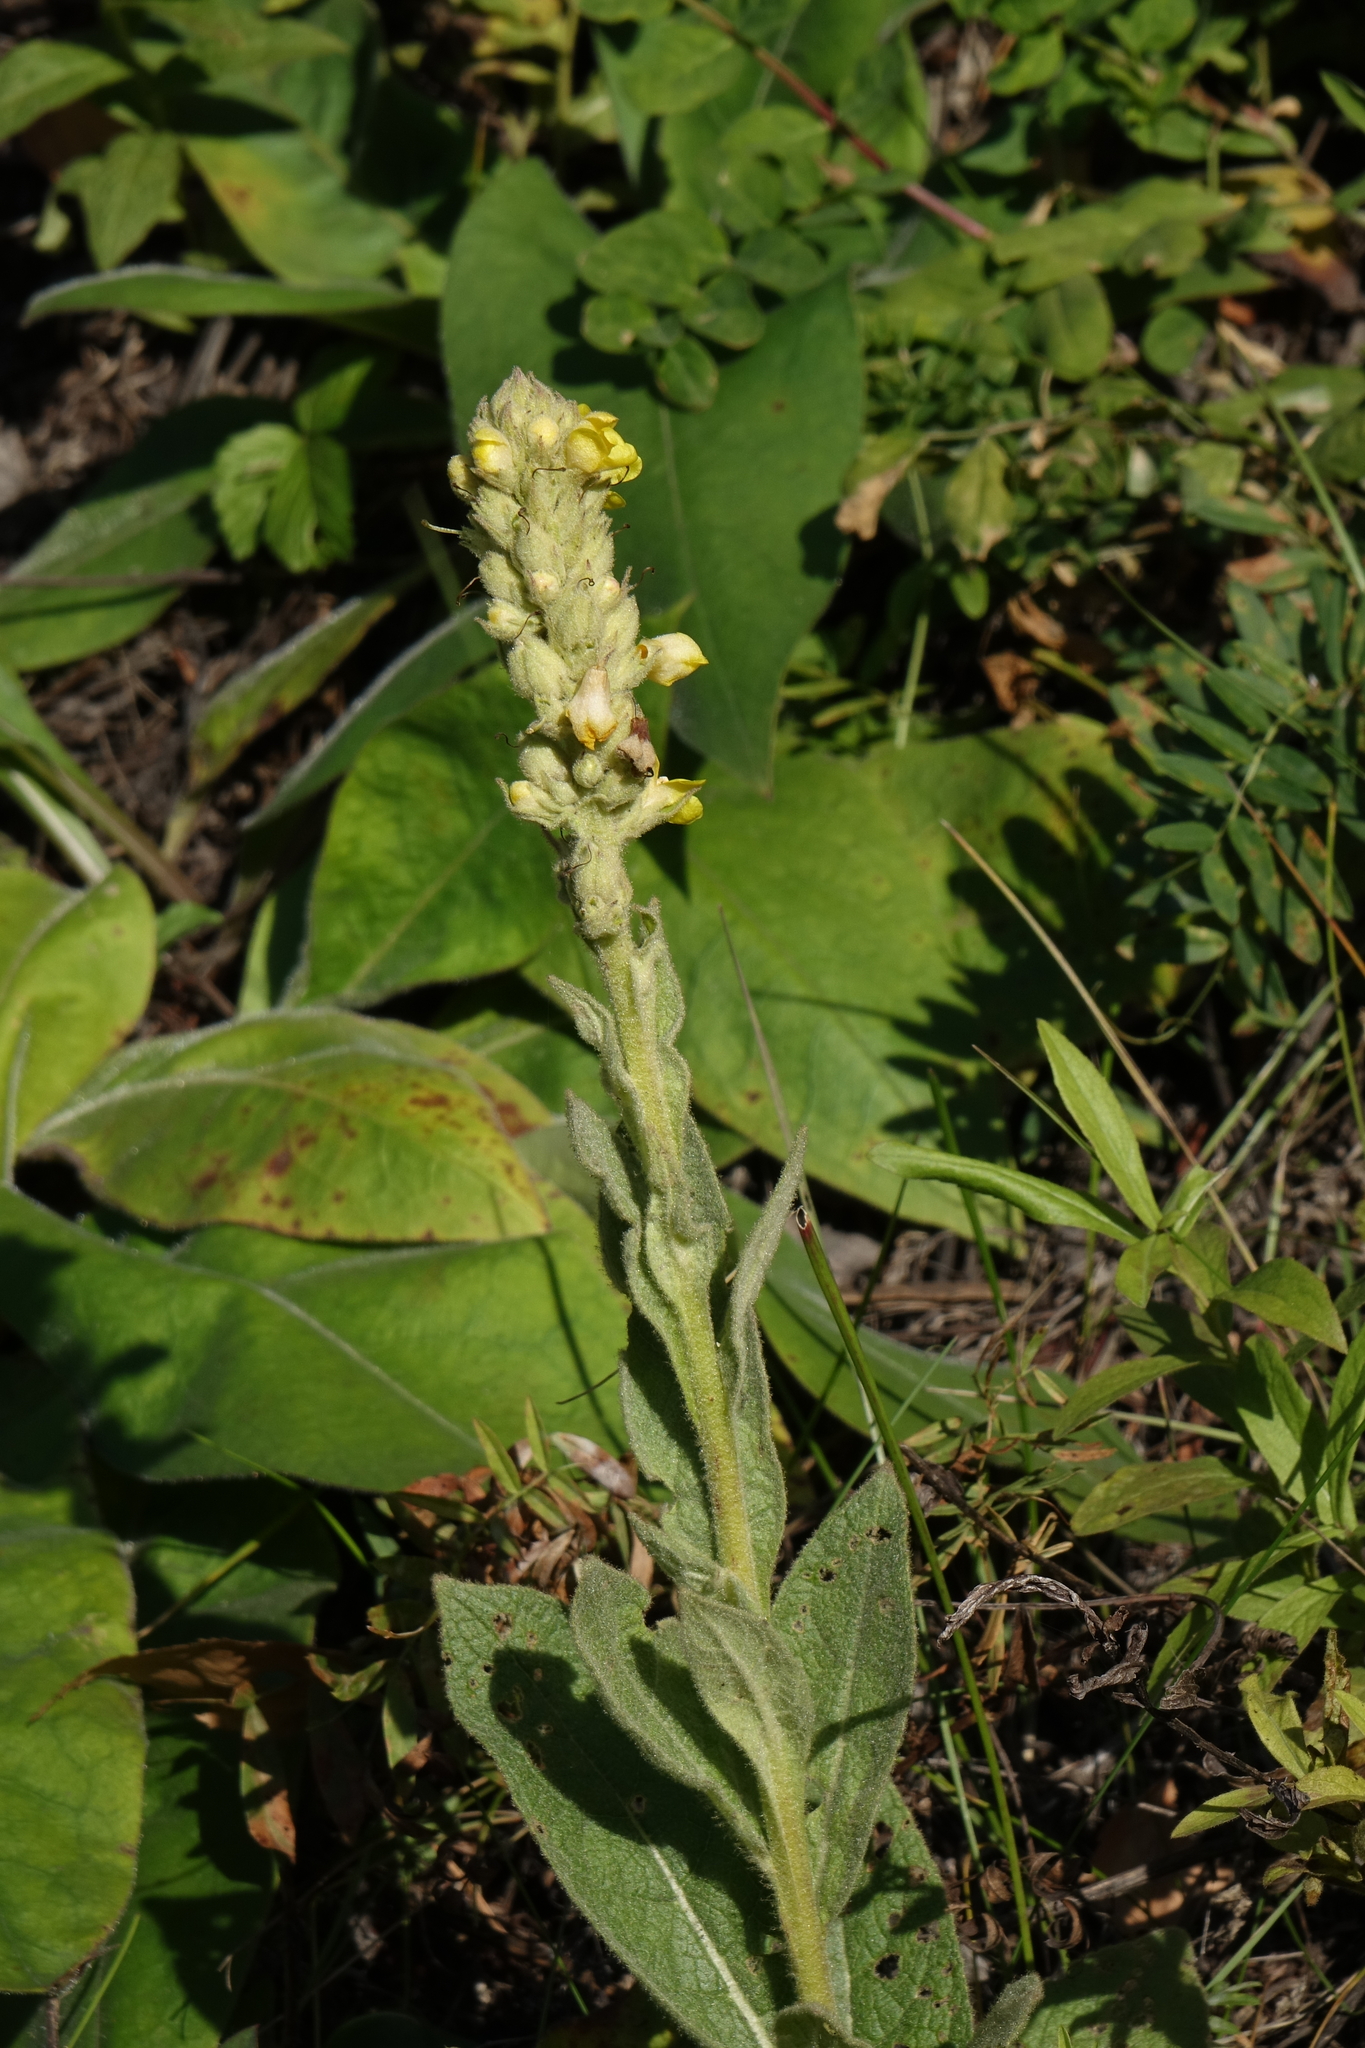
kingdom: Plantae
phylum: Tracheophyta
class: Magnoliopsida
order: Lamiales
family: Scrophulariaceae
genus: Verbascum
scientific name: Verbascum thapsus
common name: Common mullein
